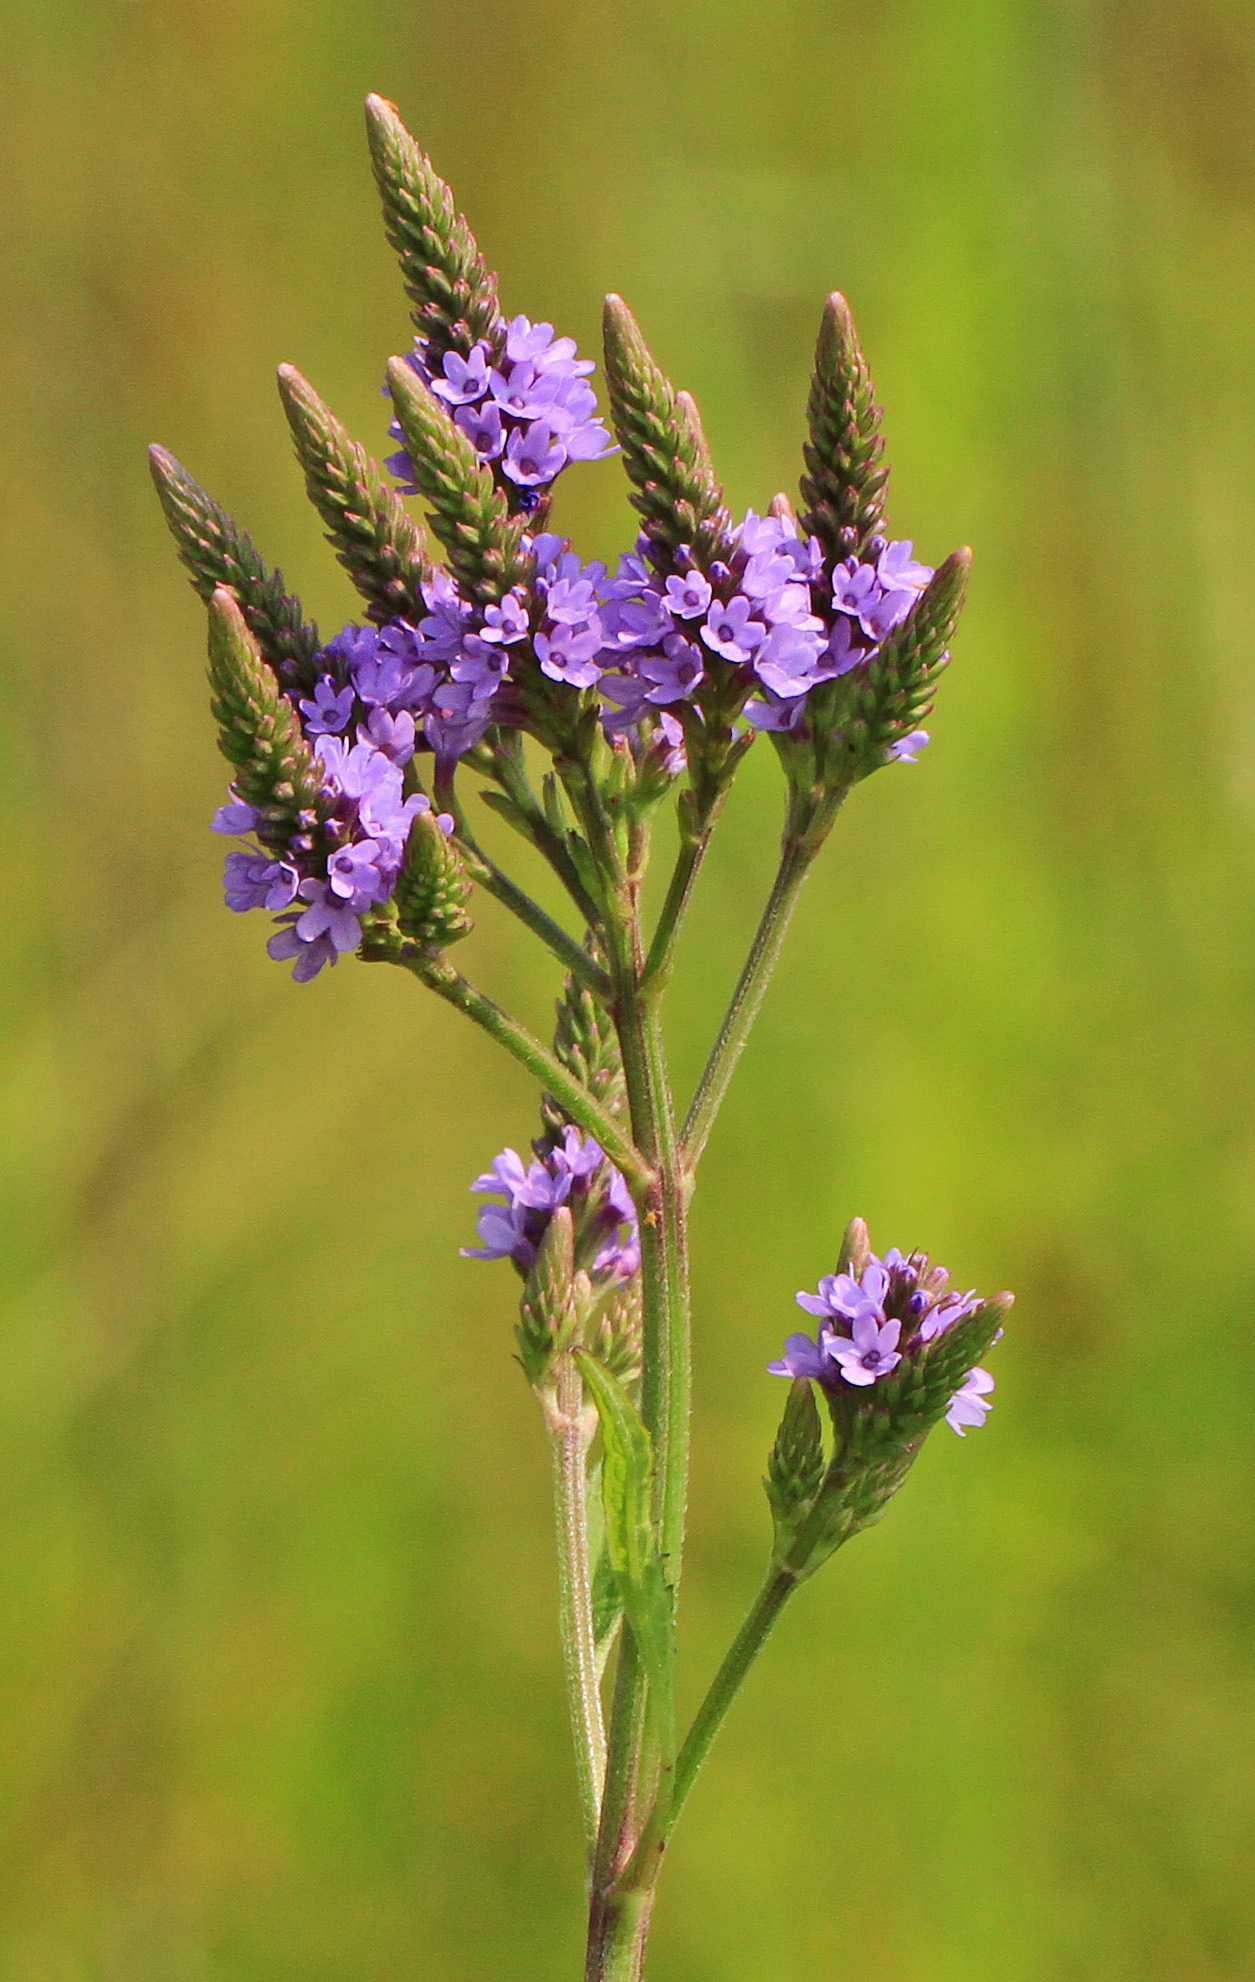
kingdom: Plantae
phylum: Tracheophyta
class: Magnoliopsida
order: Lamiales
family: Verbenaceae
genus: Verbena
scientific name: Verbena hastata
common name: American blue vervain
